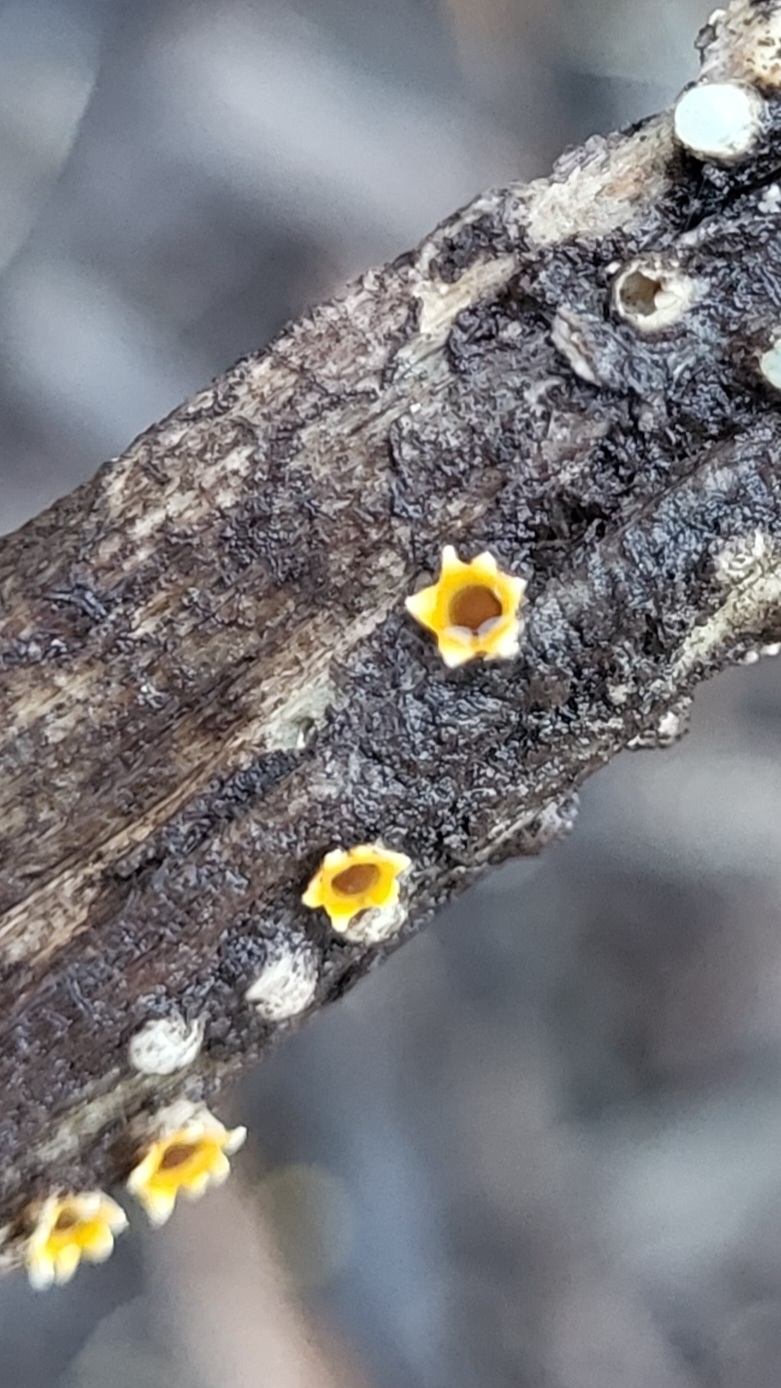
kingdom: Fungi
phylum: Basidiomycota
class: Agaricomycetes
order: Geastrales
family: Geastraceae
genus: Sphaerobolus
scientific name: Sphaerobolus stellatus
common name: Cannon fungus
